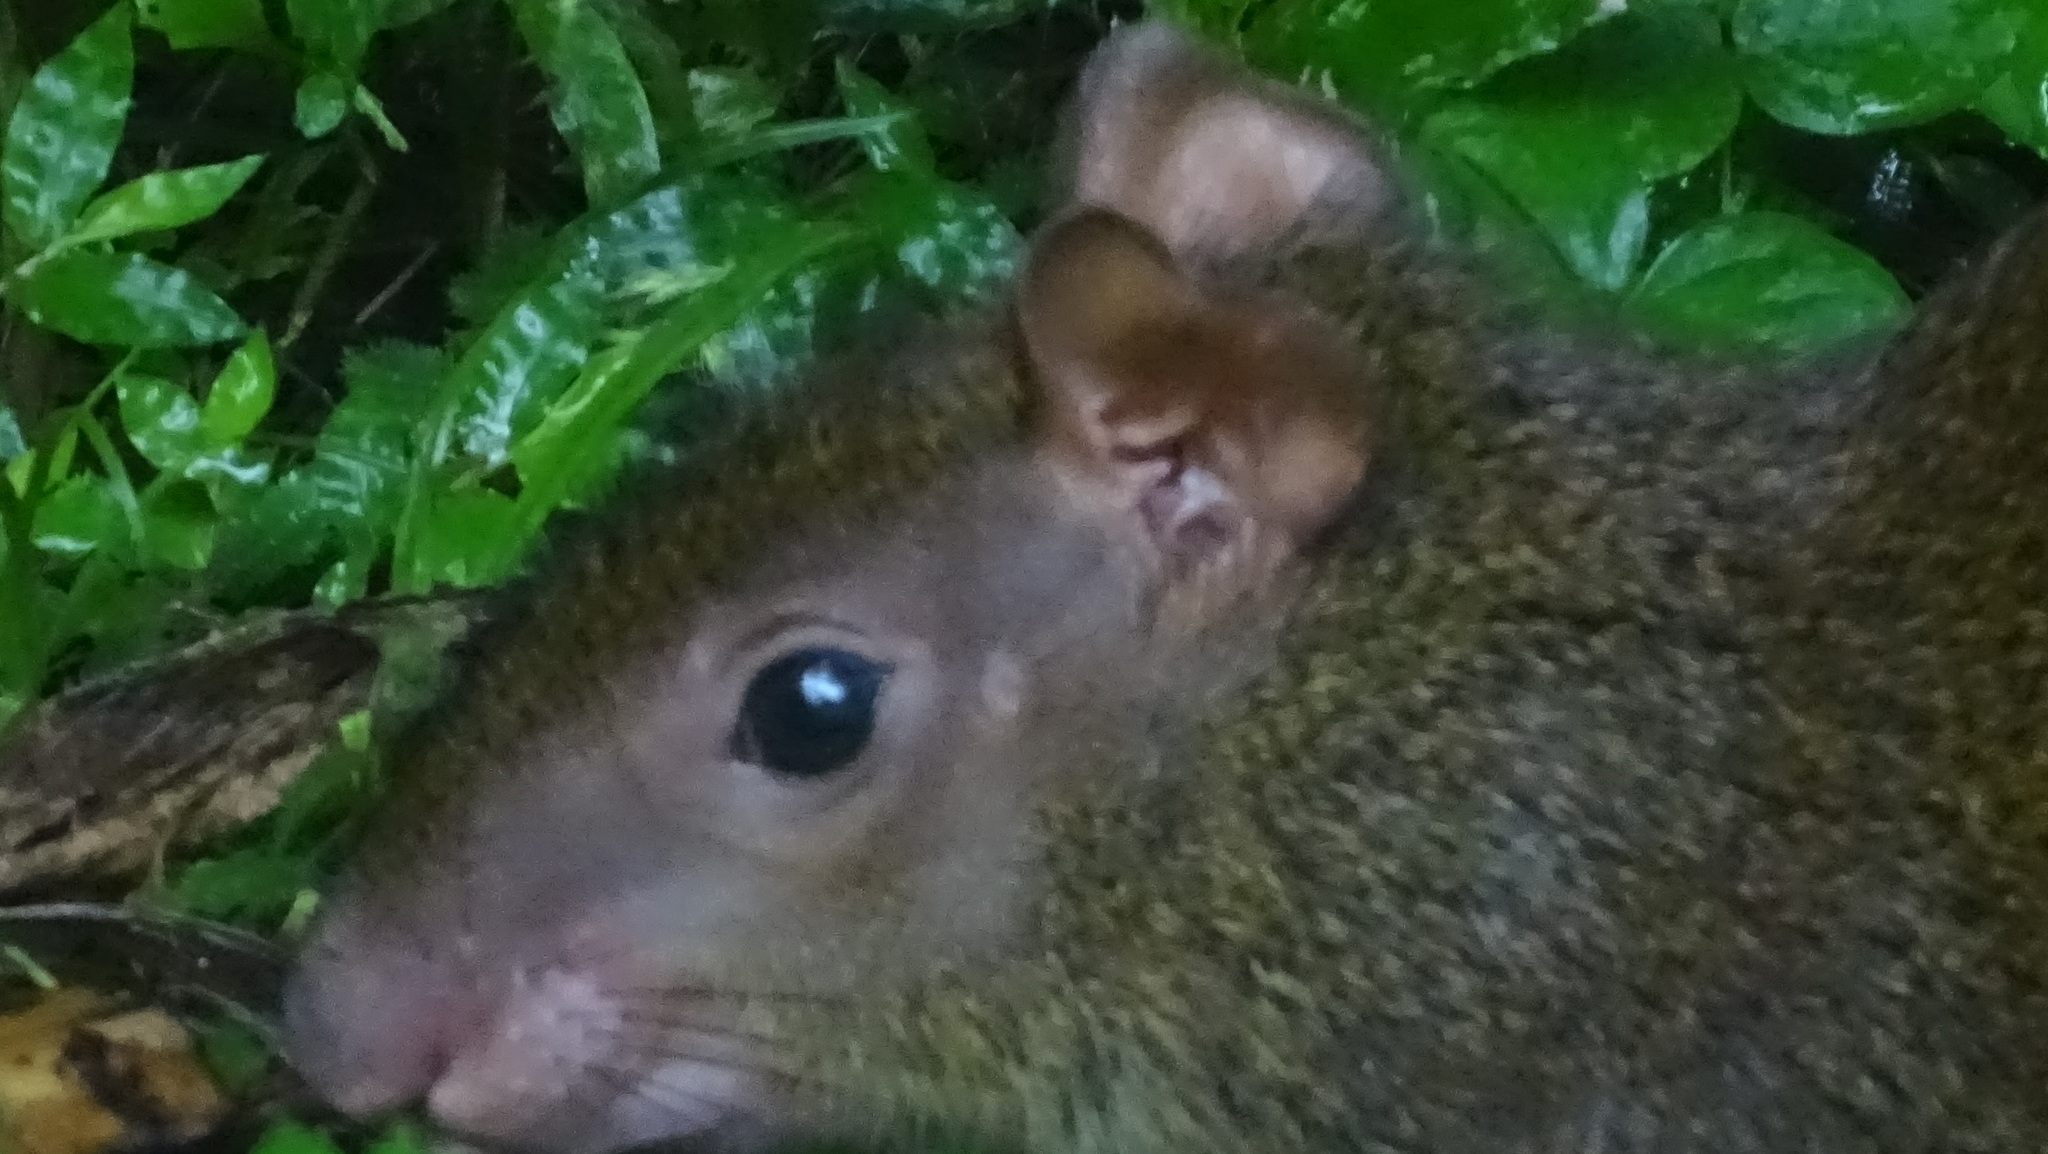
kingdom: Animalia
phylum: Chordata
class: Mammalia
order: Rodentia
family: Dasyproctidae
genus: Dasyprocta
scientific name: Dasyprocta punctata
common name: Central american agouti
